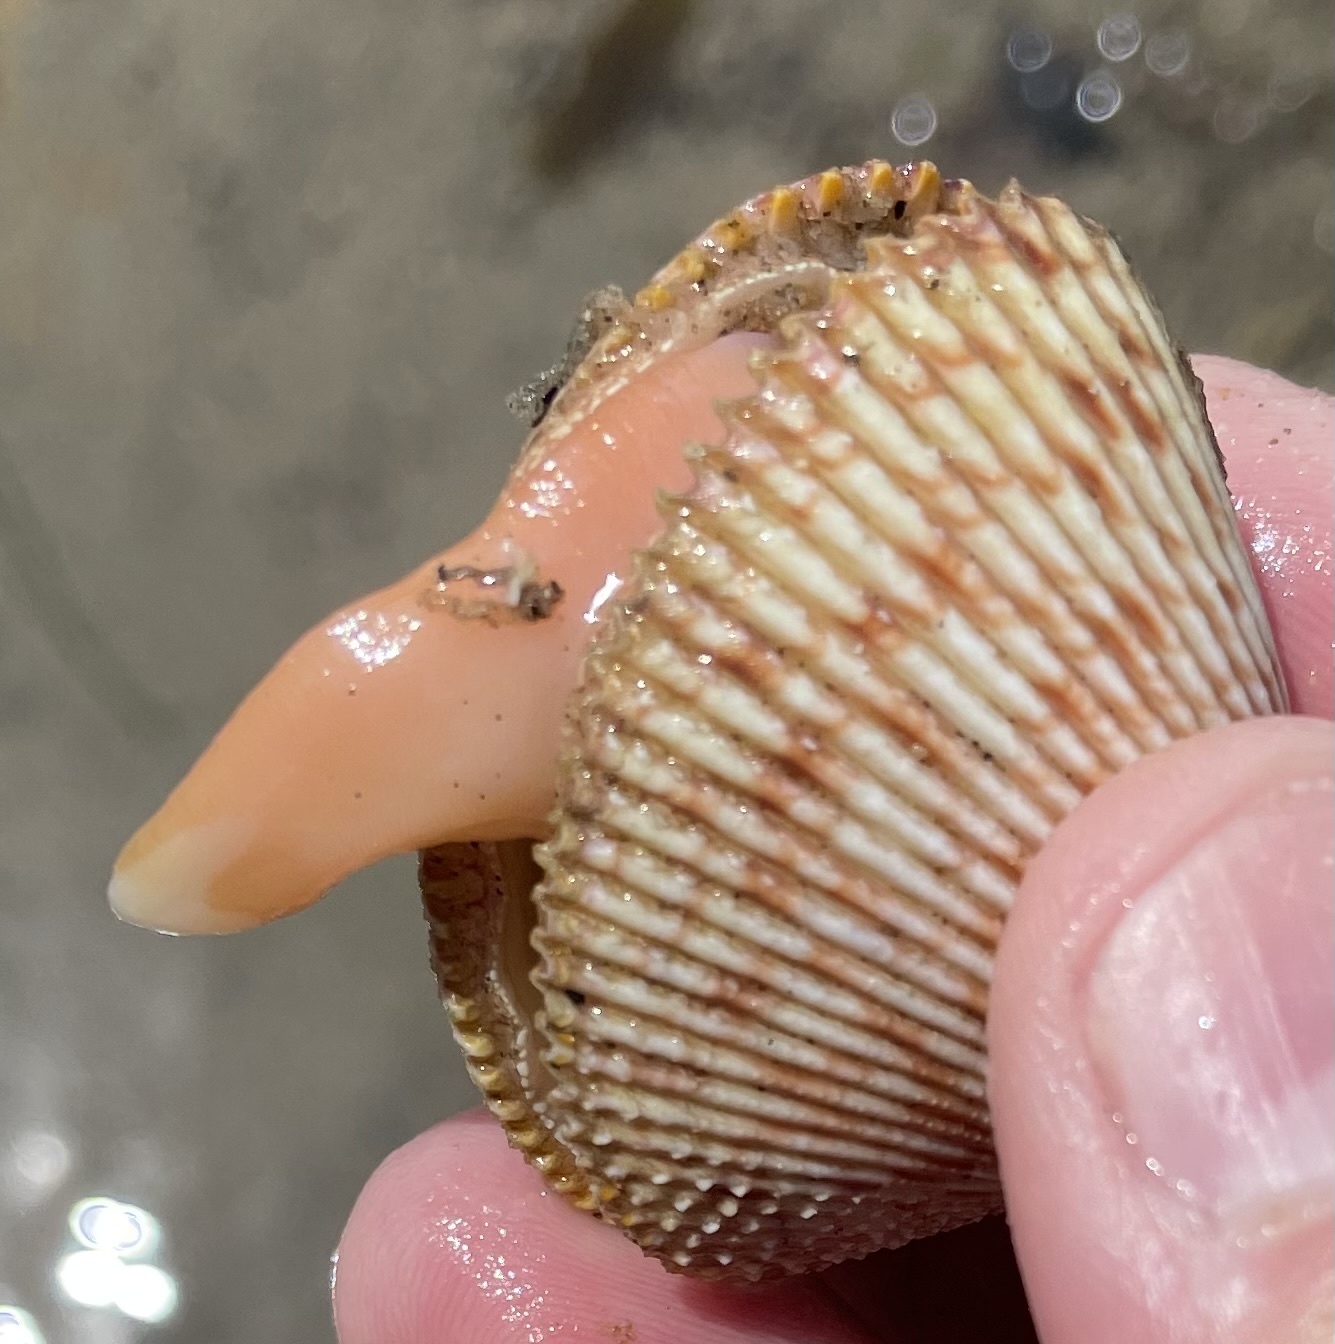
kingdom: Animalia
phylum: Mollusca
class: Bivalvia
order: Cardiida
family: Cardiidae
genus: Dallocardia
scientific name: Dallocardia quadragenaria
